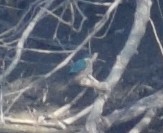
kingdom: Animalia
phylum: Chordata
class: Aves
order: Coraciiformes
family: Alcedinidae
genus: Alcedo
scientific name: Alcedo atthis
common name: Common kingfisher
